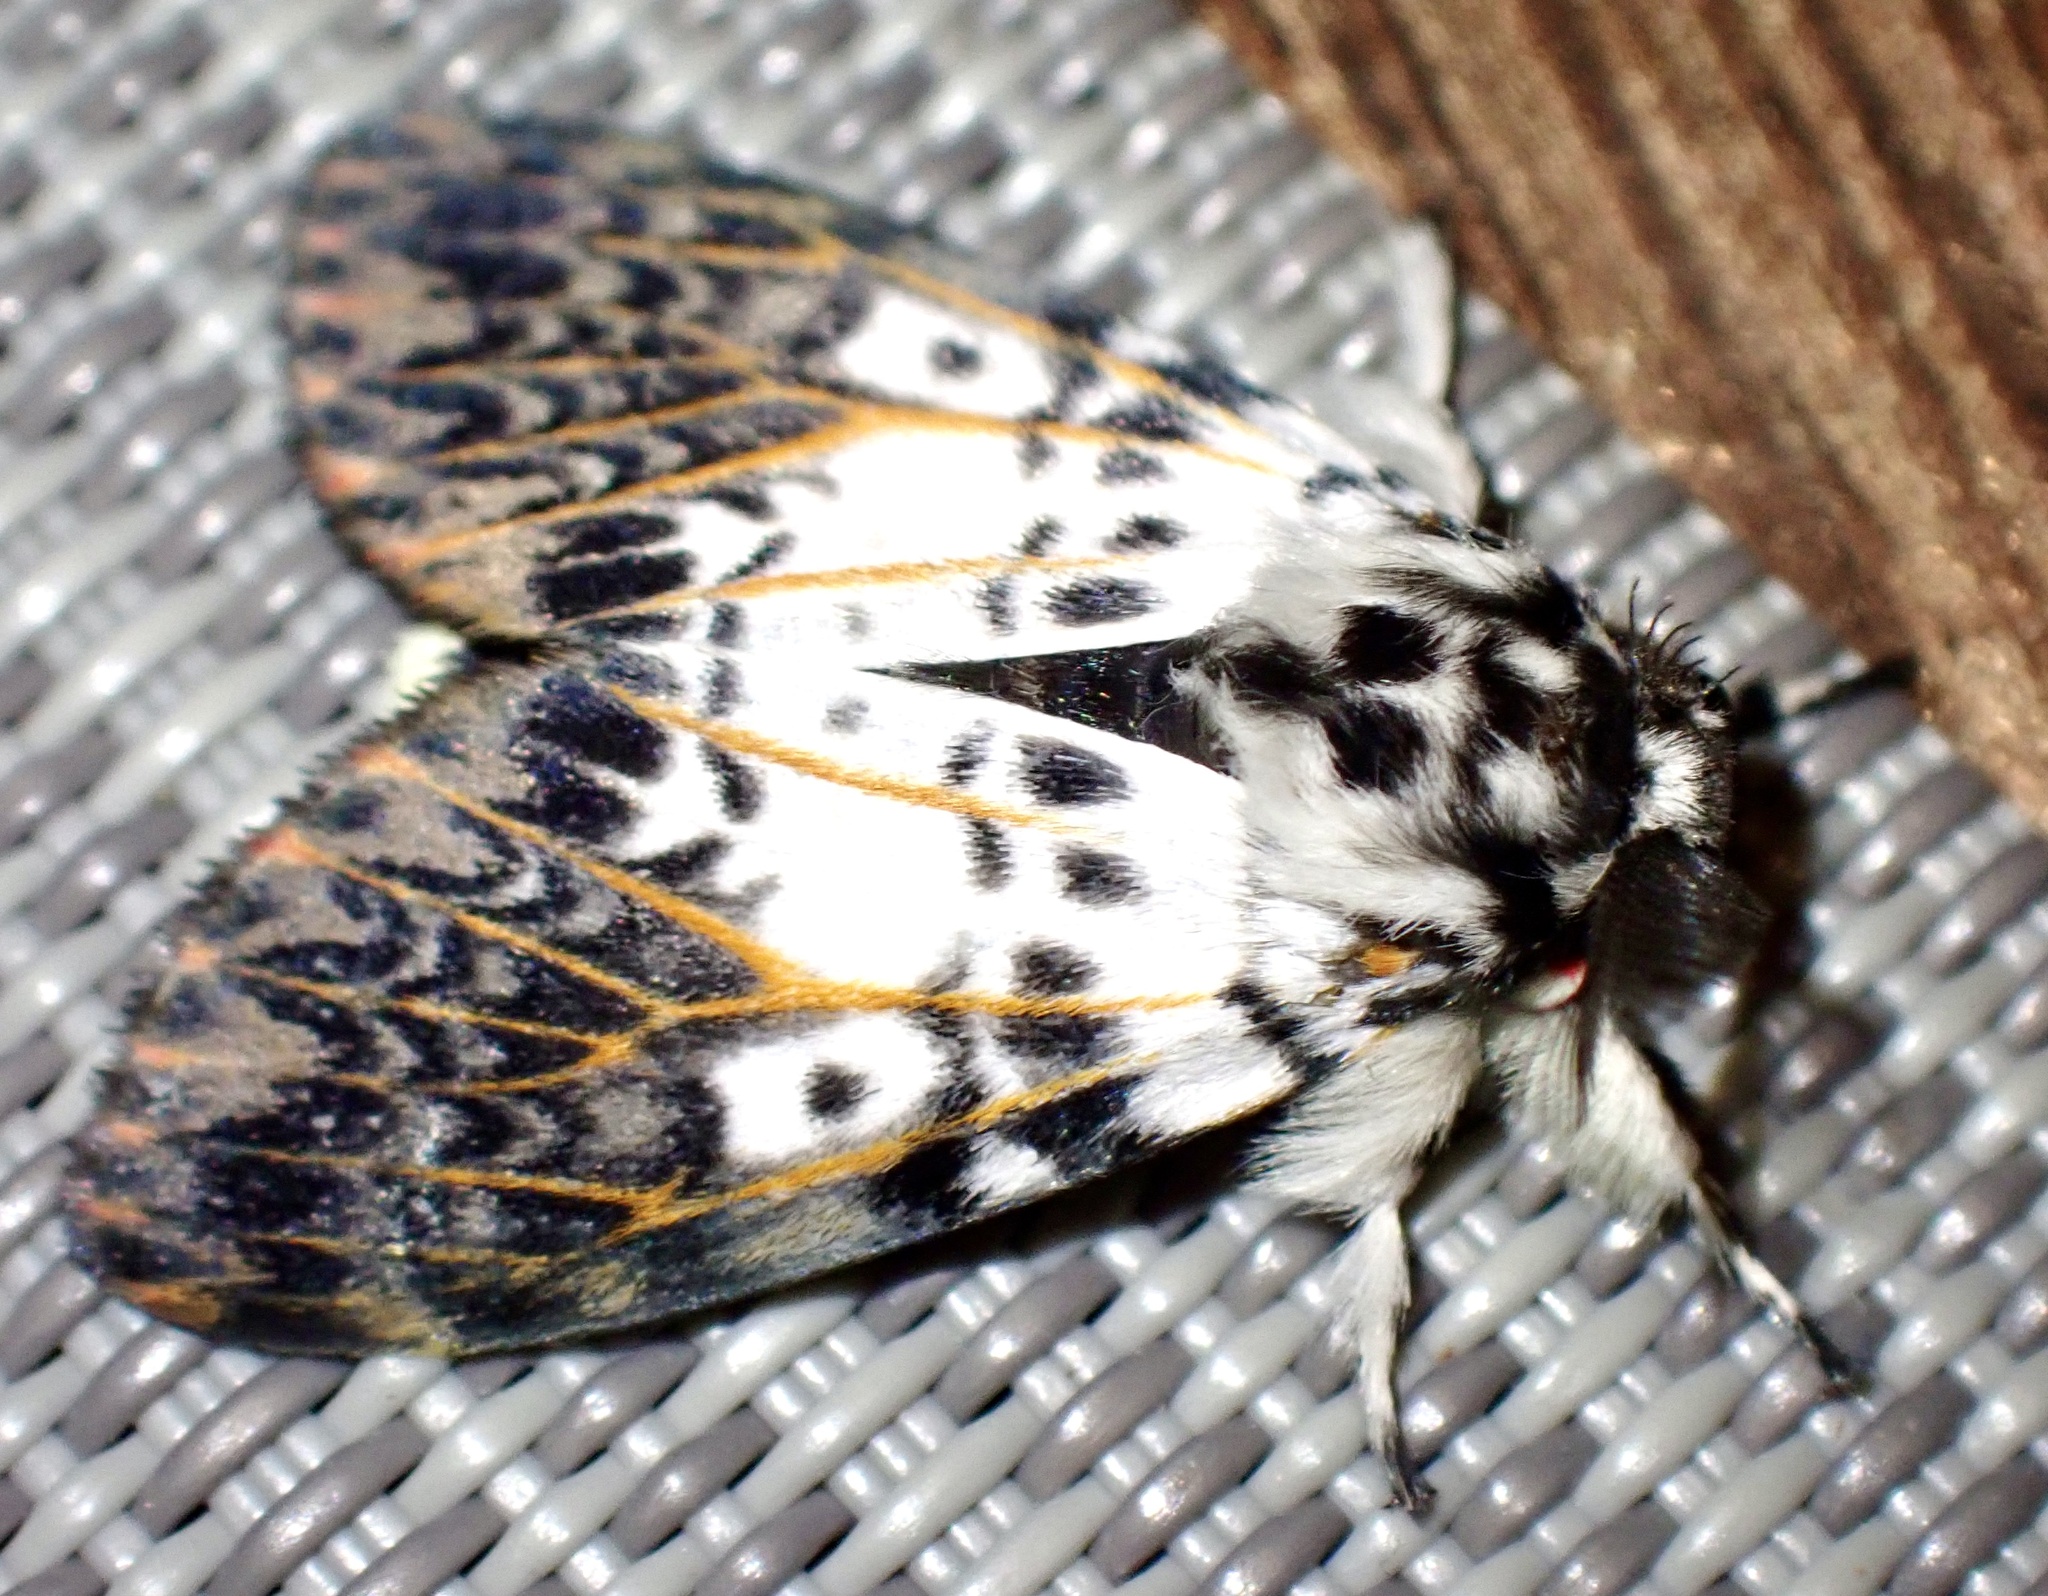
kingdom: Animalia
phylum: Arthropoda
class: Insecta
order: Lepidoptera
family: Erebidae
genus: Lymantria
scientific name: Lymantria ninayi
